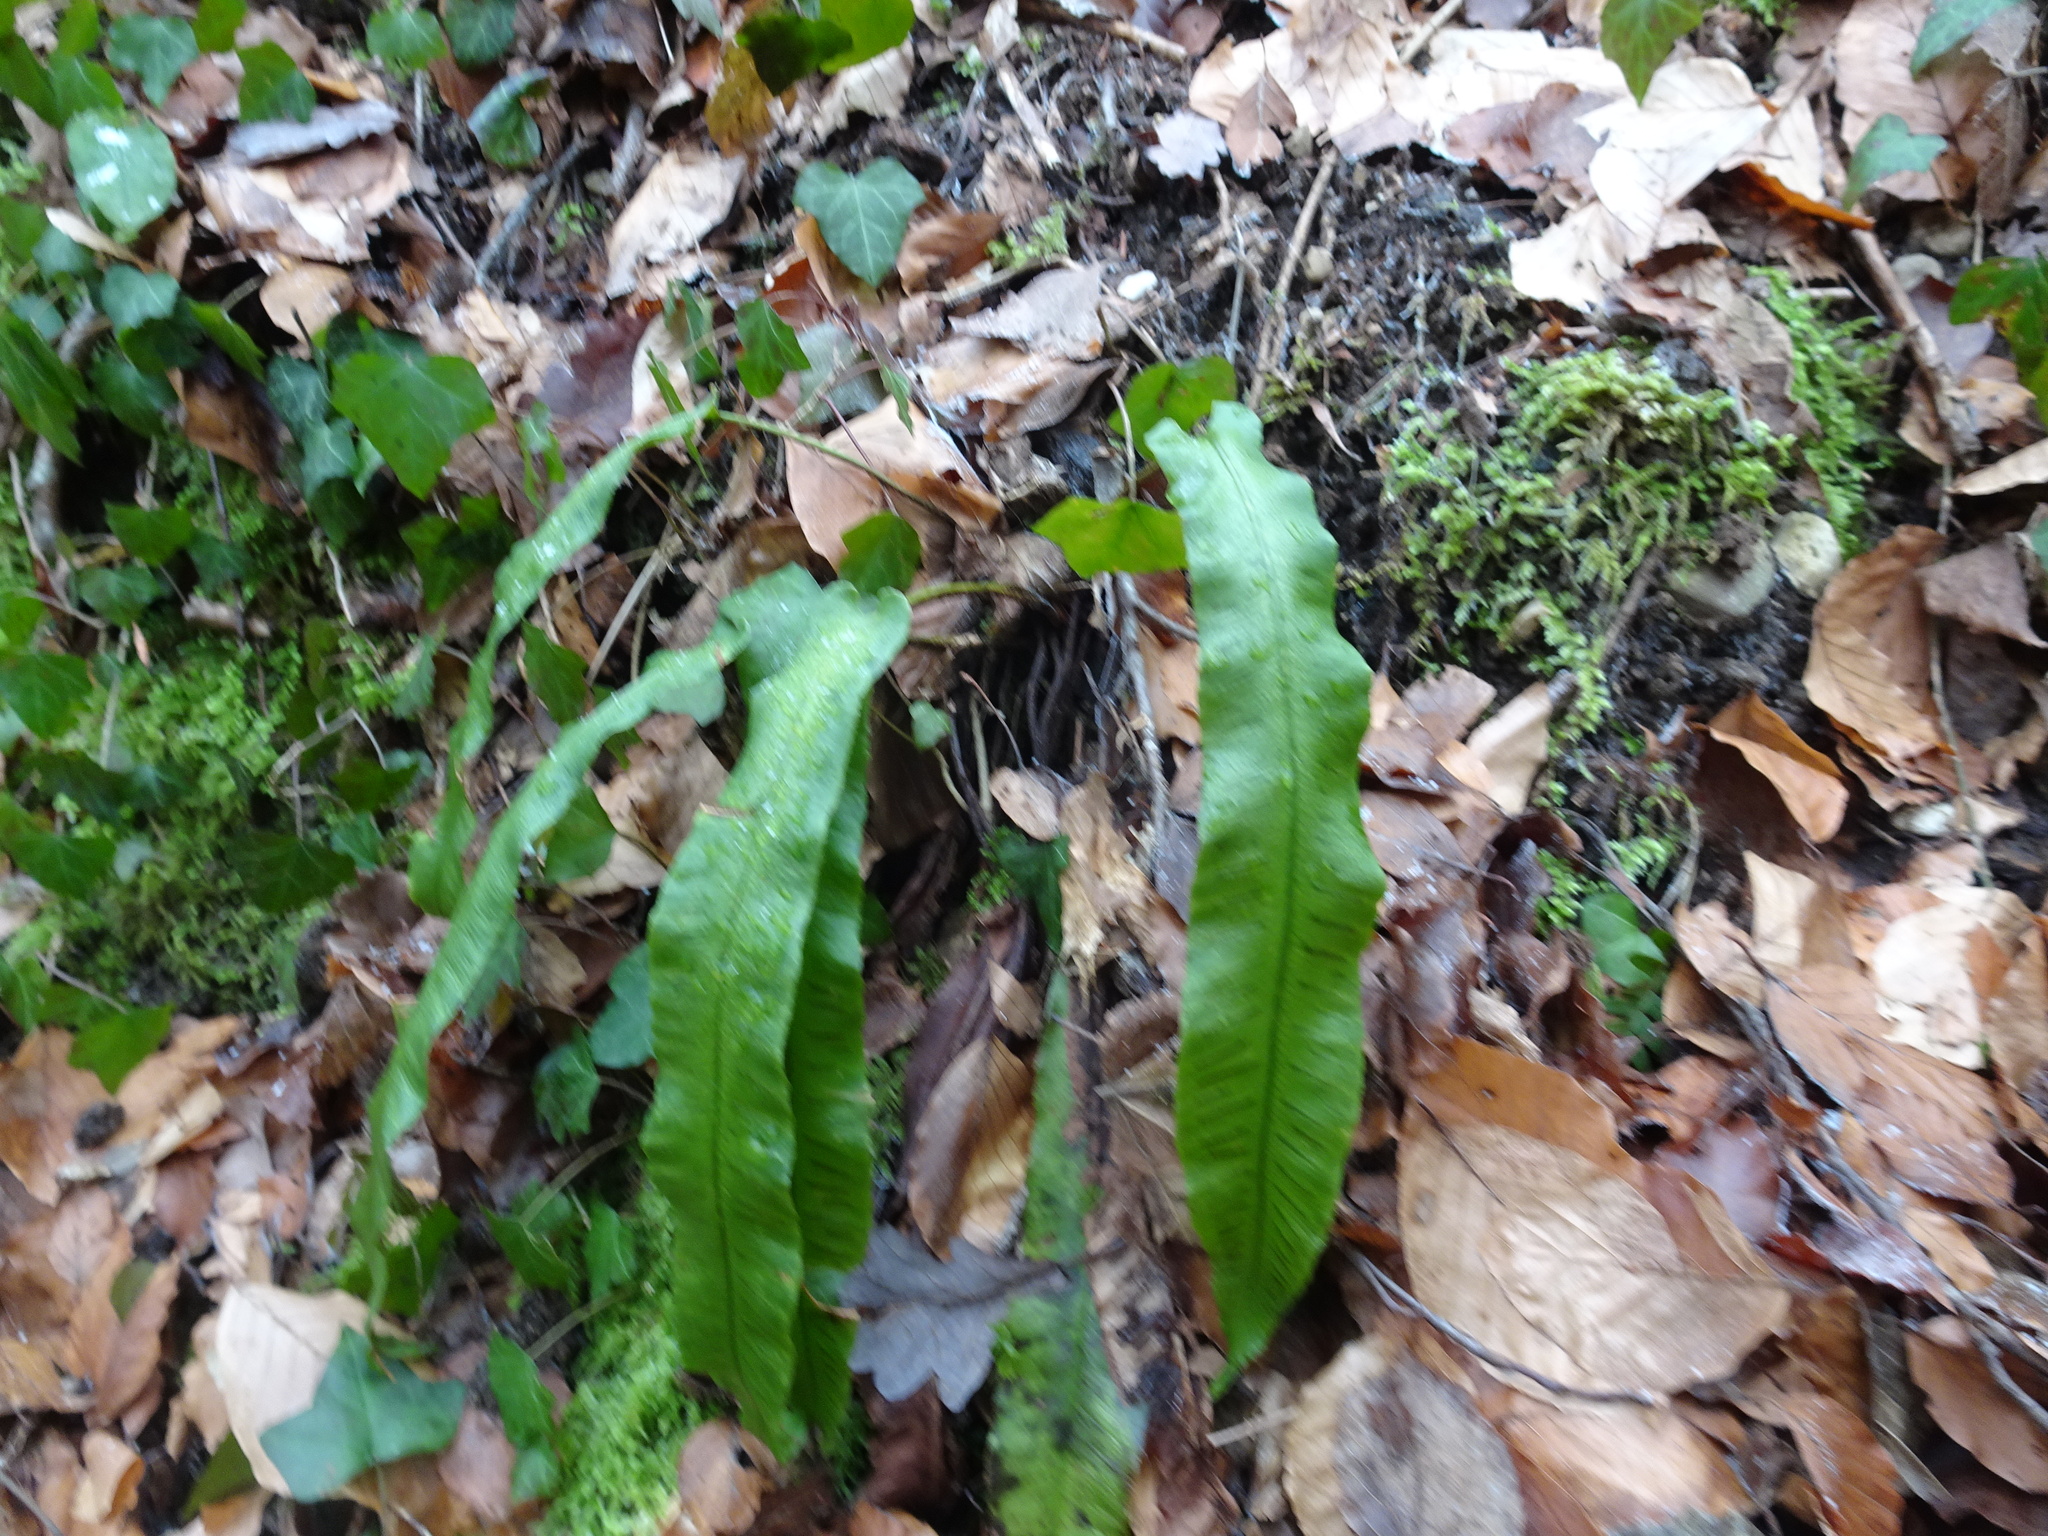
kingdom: Plantae
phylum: Tracheophyta
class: Polypodiopsida
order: Polypodiales
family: Aspleniaceae
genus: Asplenium
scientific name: Asplenium scolopendrium
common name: Hart's-tongue fern
